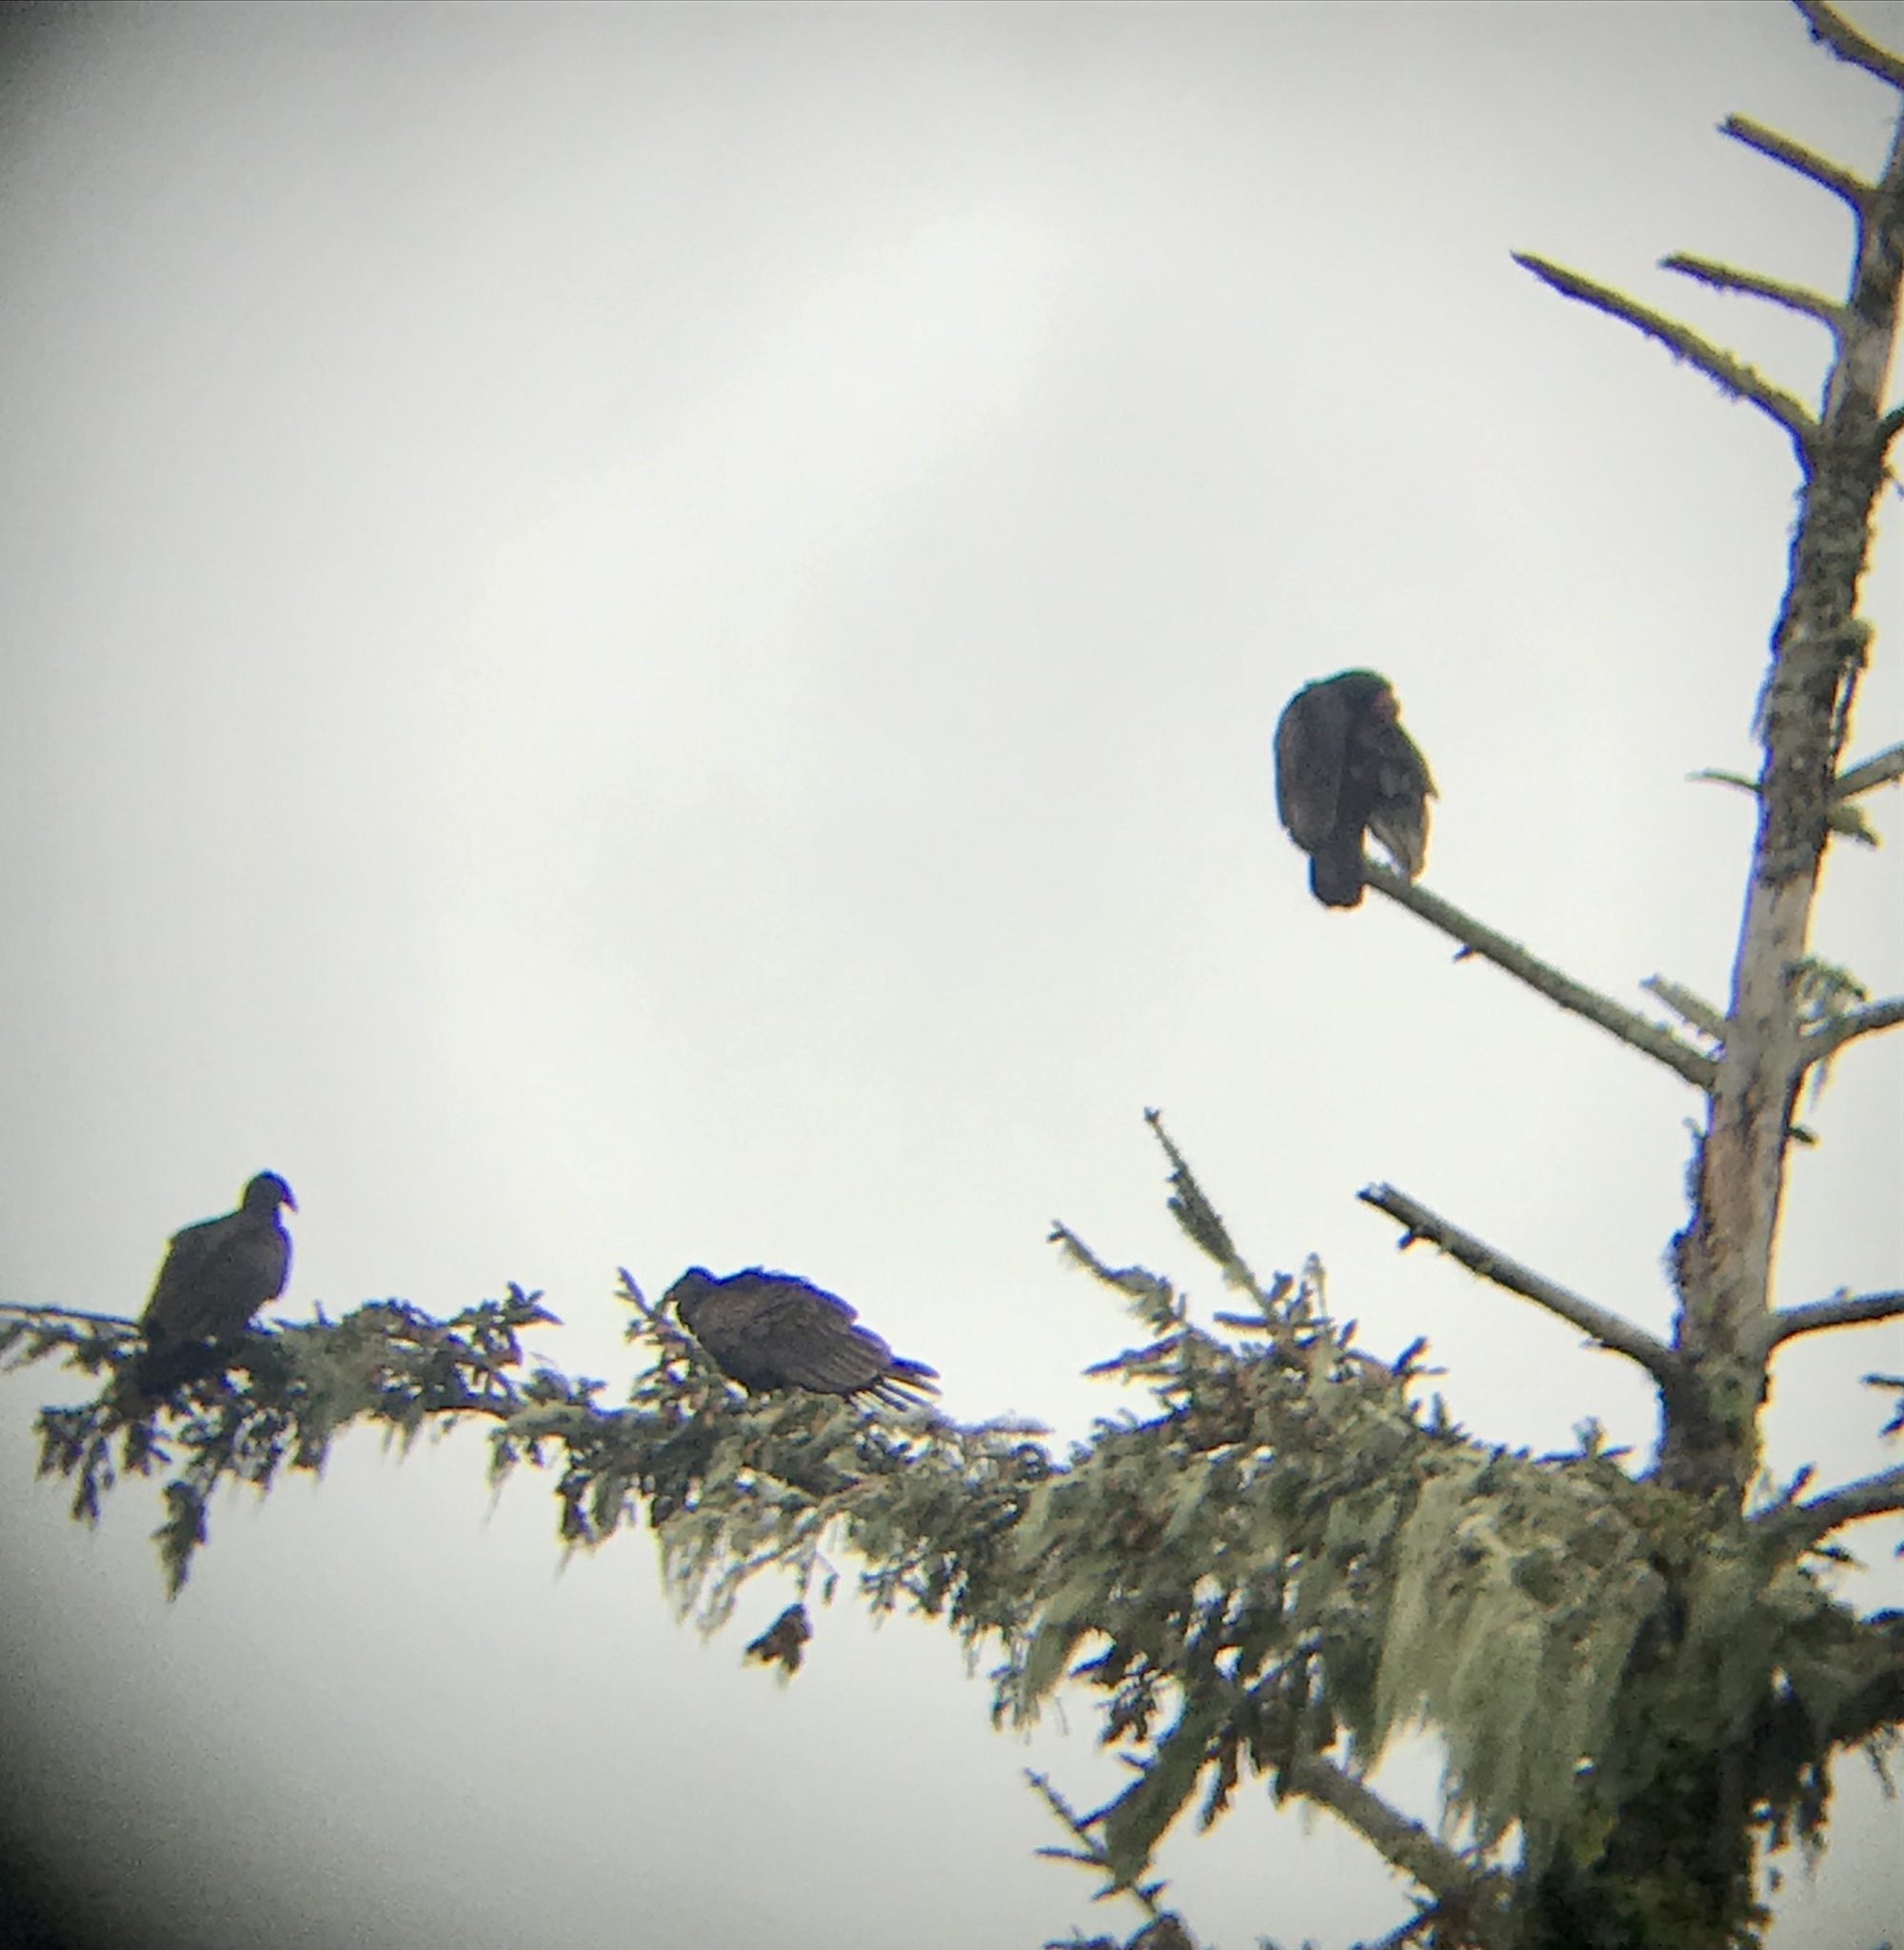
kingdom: Animalia
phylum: Chordata
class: Aves
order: Accipitriformes
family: Cathartidae
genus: Cathartes
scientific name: Cathartes aura
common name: Turkey vulture
